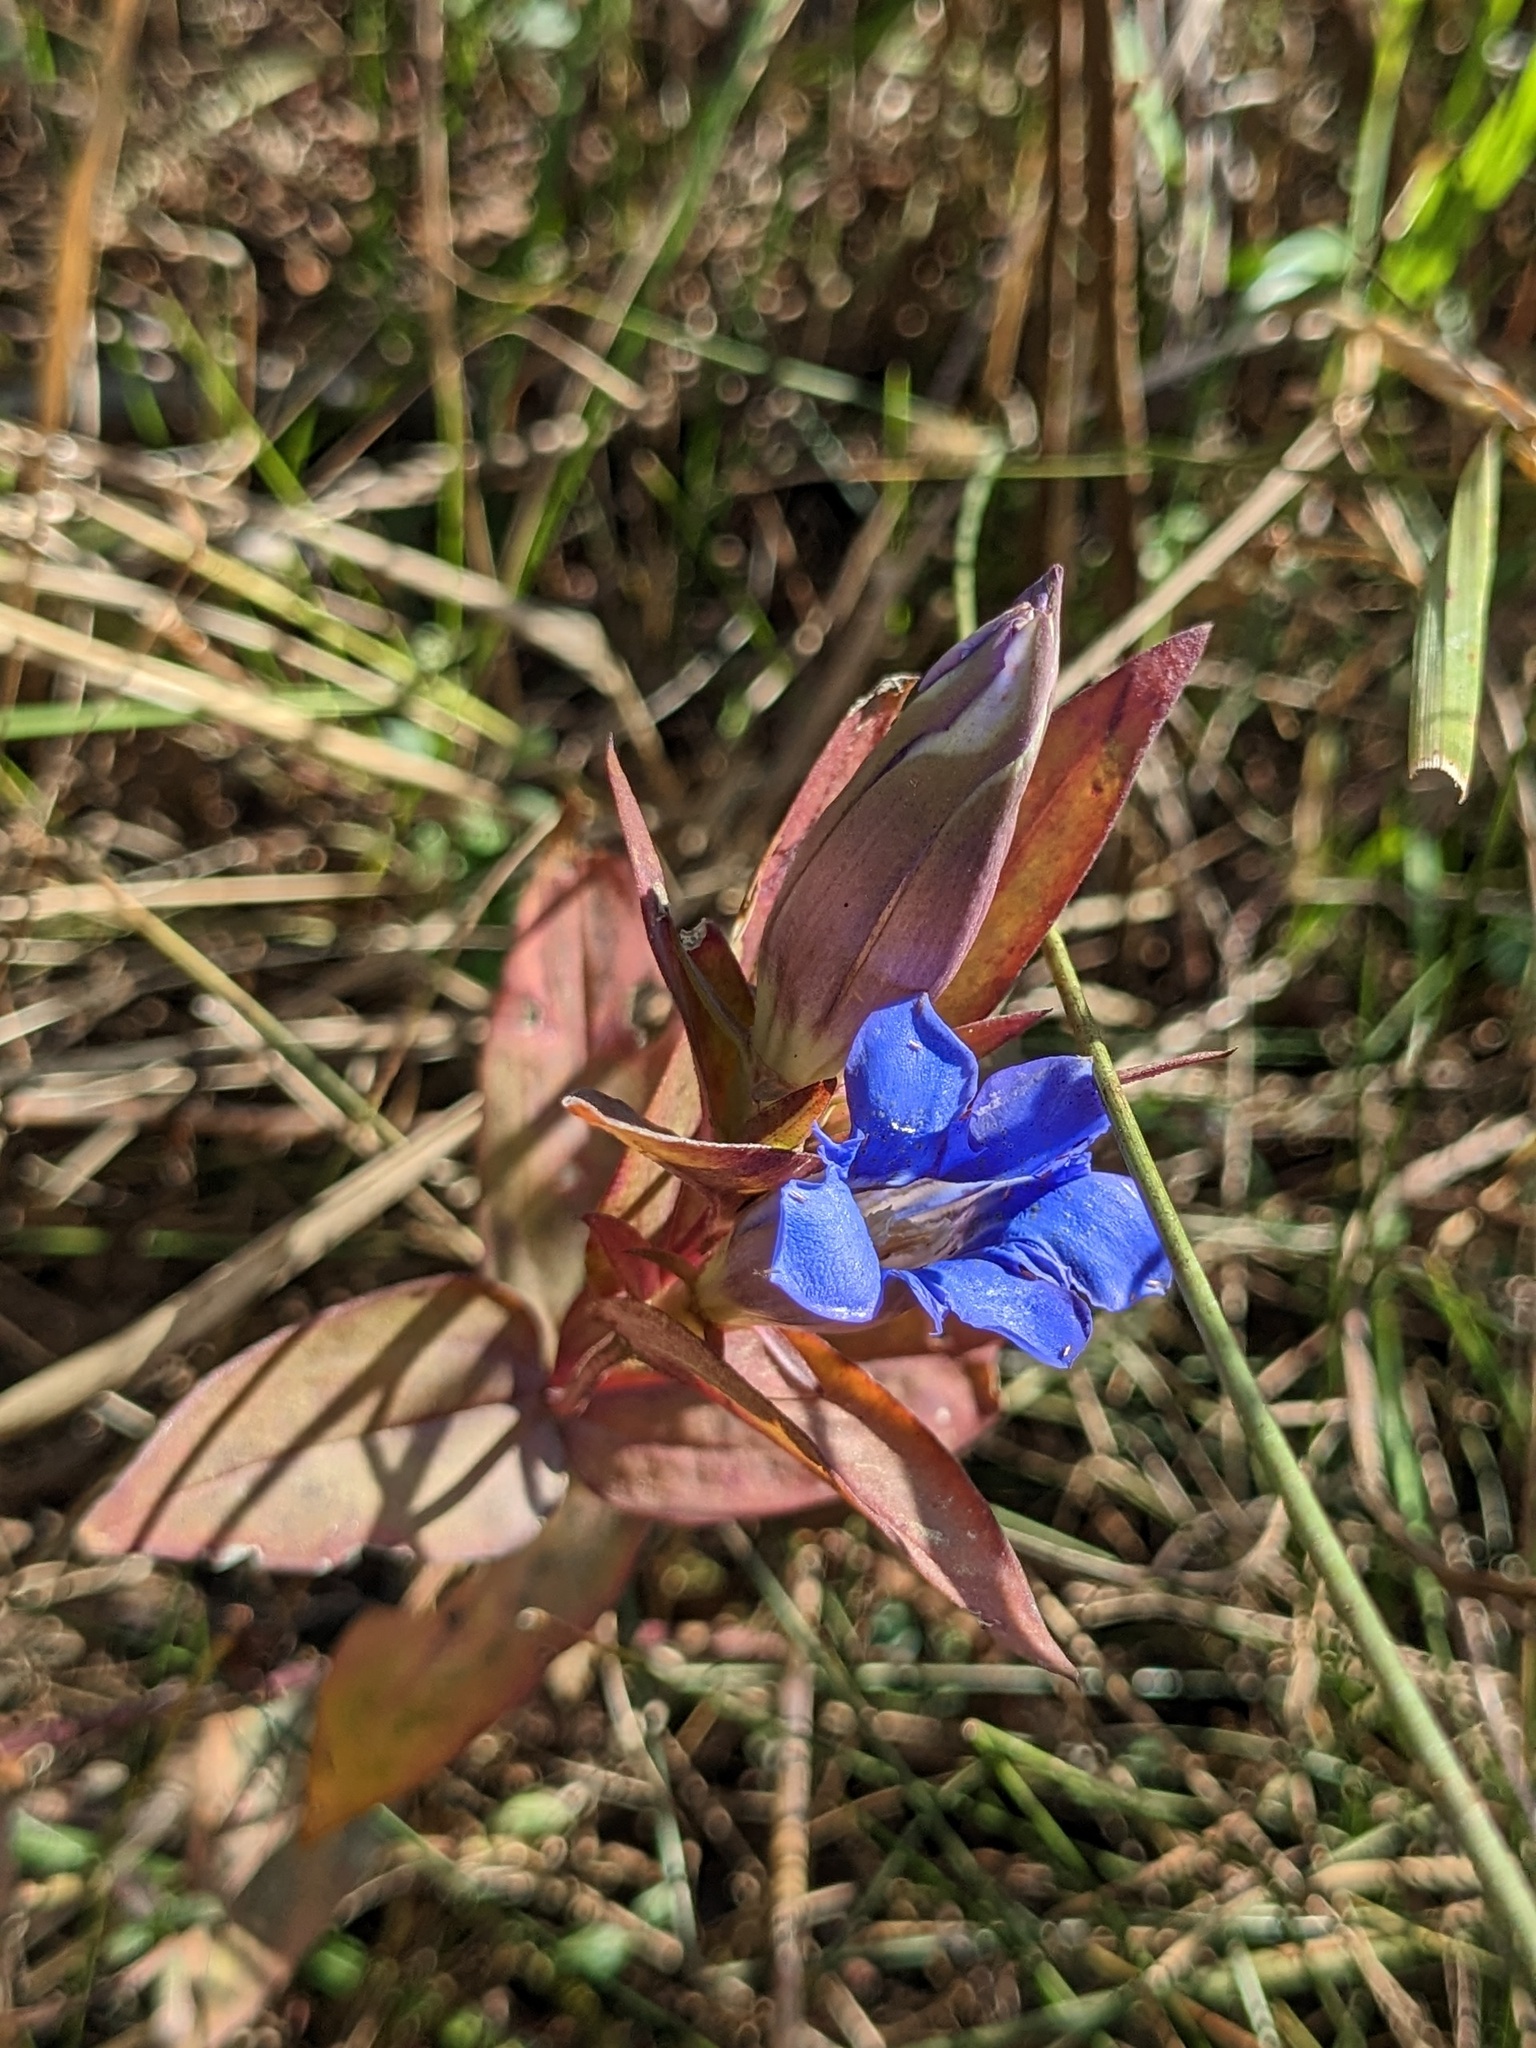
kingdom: Plantae
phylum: Tracheophyta
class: Magnoliopsida
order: Gentianales
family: Gentianaceae
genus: Gentiana
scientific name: Gentiana scabra
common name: Scabrous gentian
